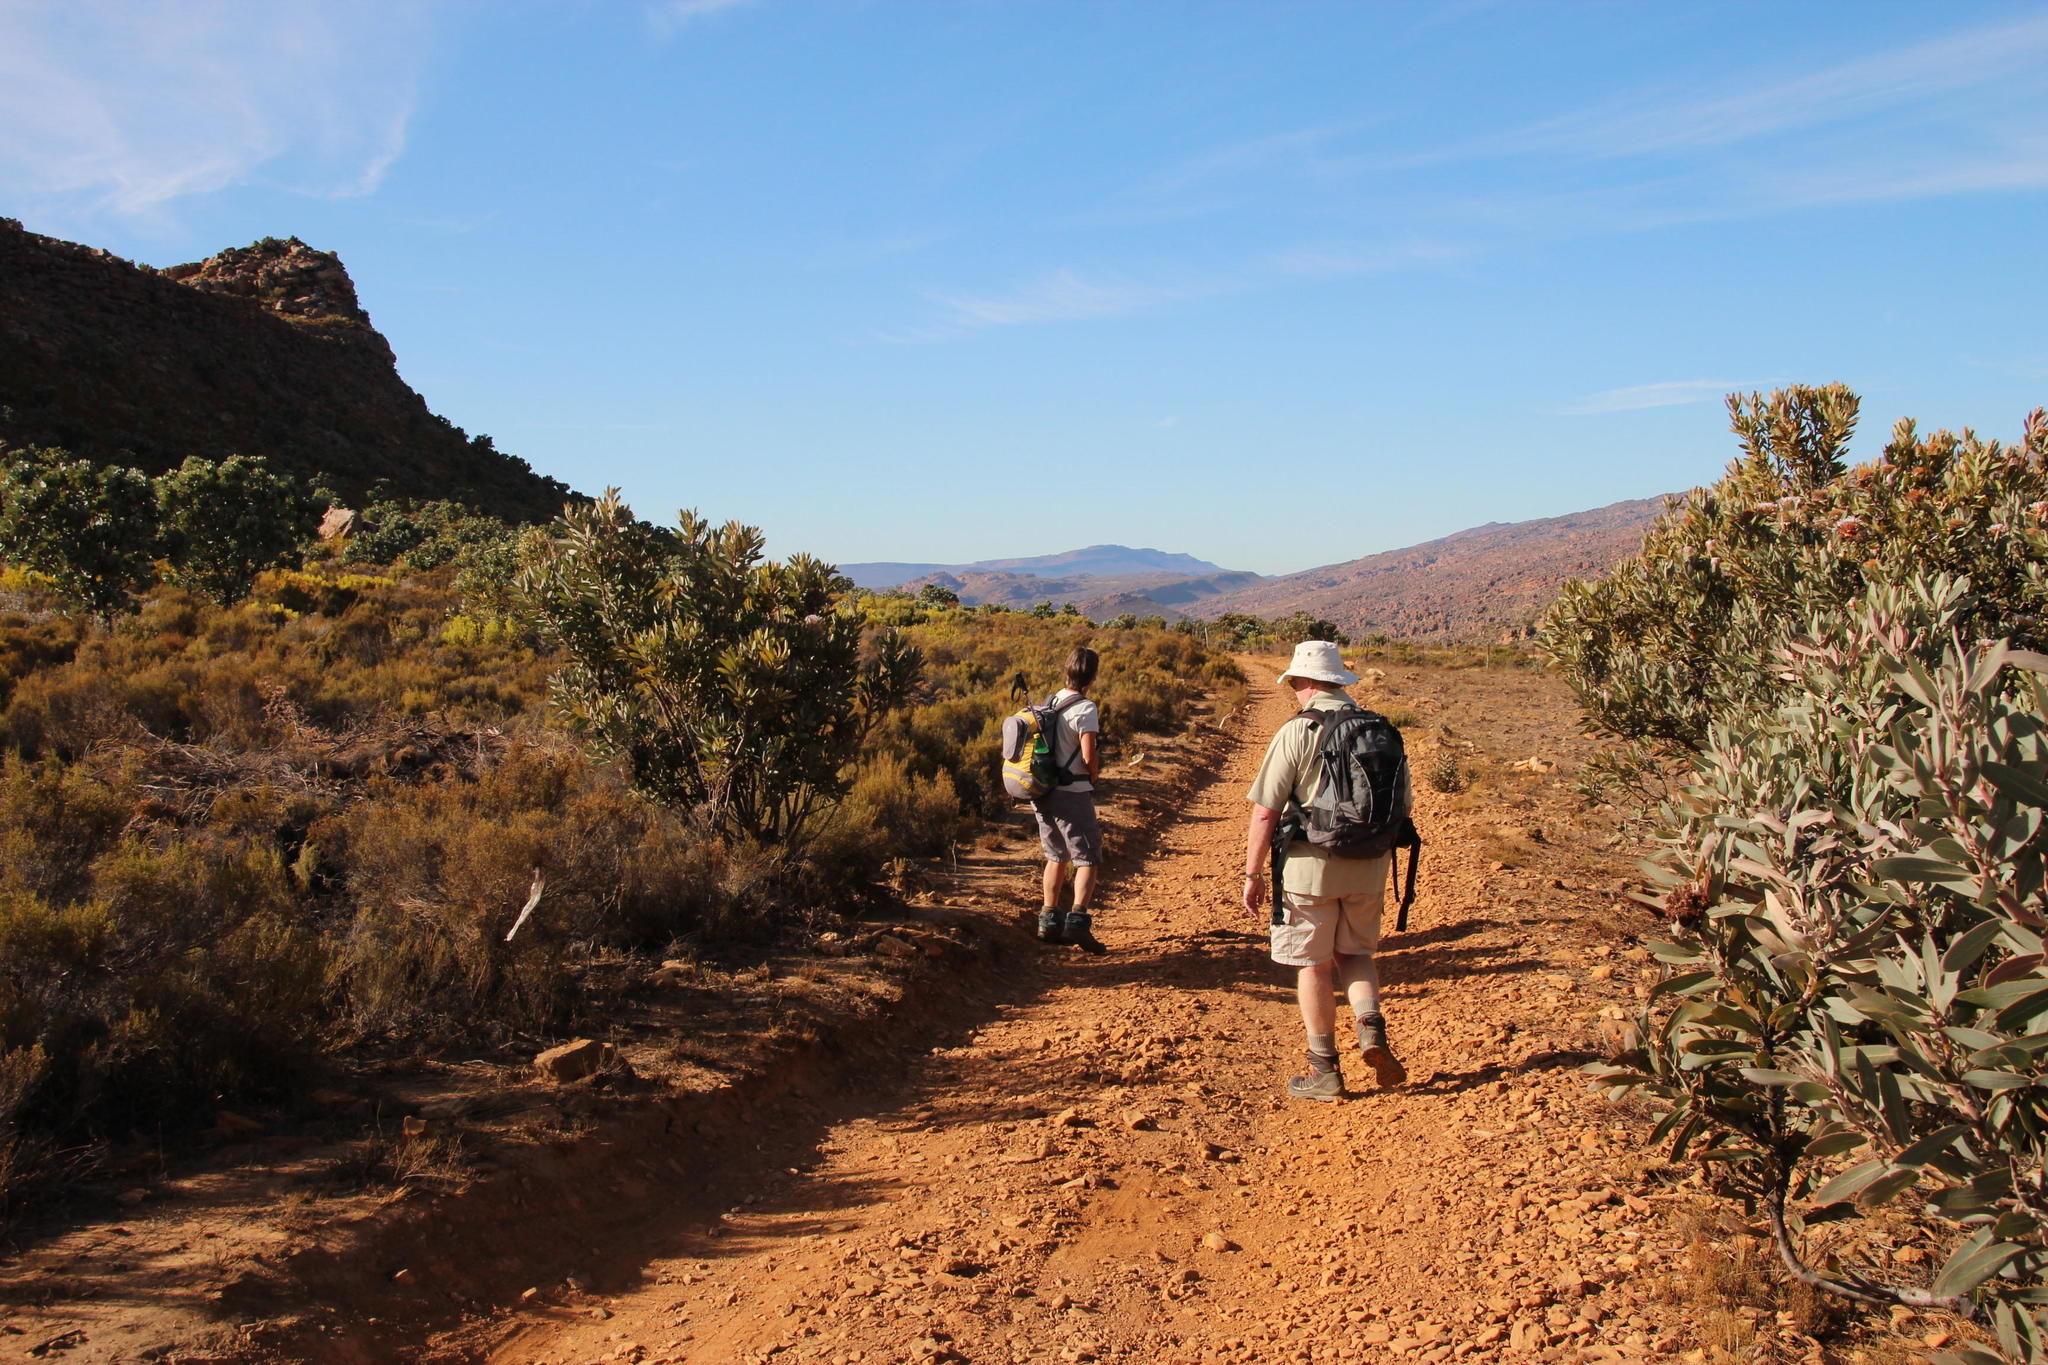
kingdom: Plantae
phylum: Tracheophyta
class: Magnoliopsida
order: Proteales
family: Proteaceae
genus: Protea
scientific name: Protea laurifolia
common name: Grey-leaf sugarbsh
